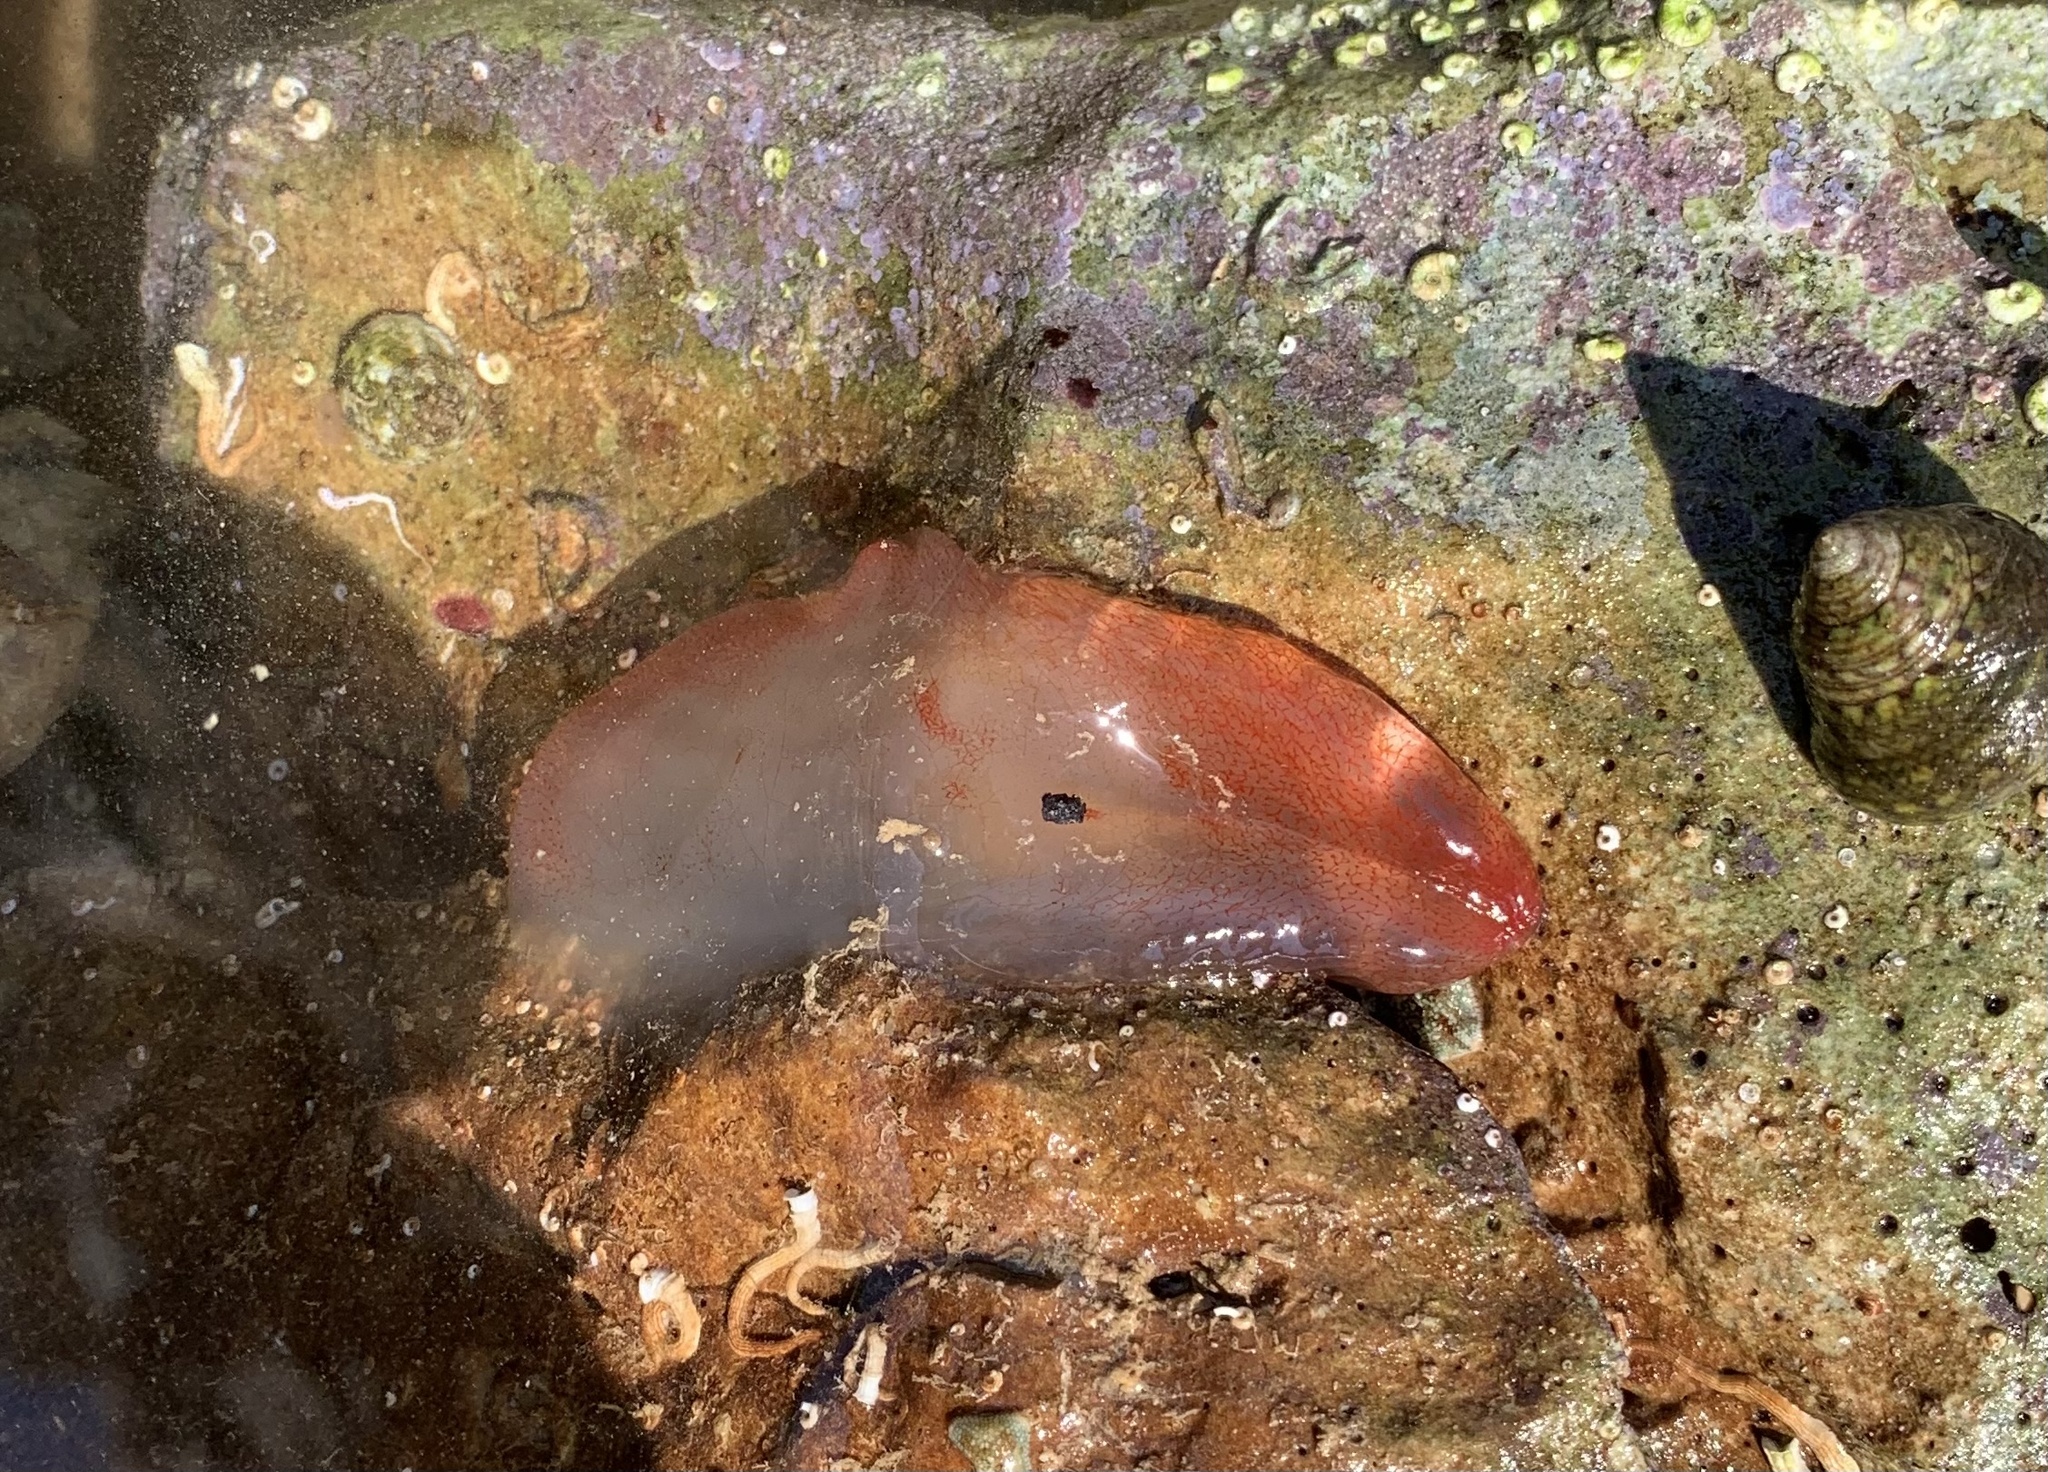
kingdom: Animalia
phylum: Chordata
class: Ascidiacea
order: Phlebobranchia
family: Ascidiidae
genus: Ascidia
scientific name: Ascidia mentula
